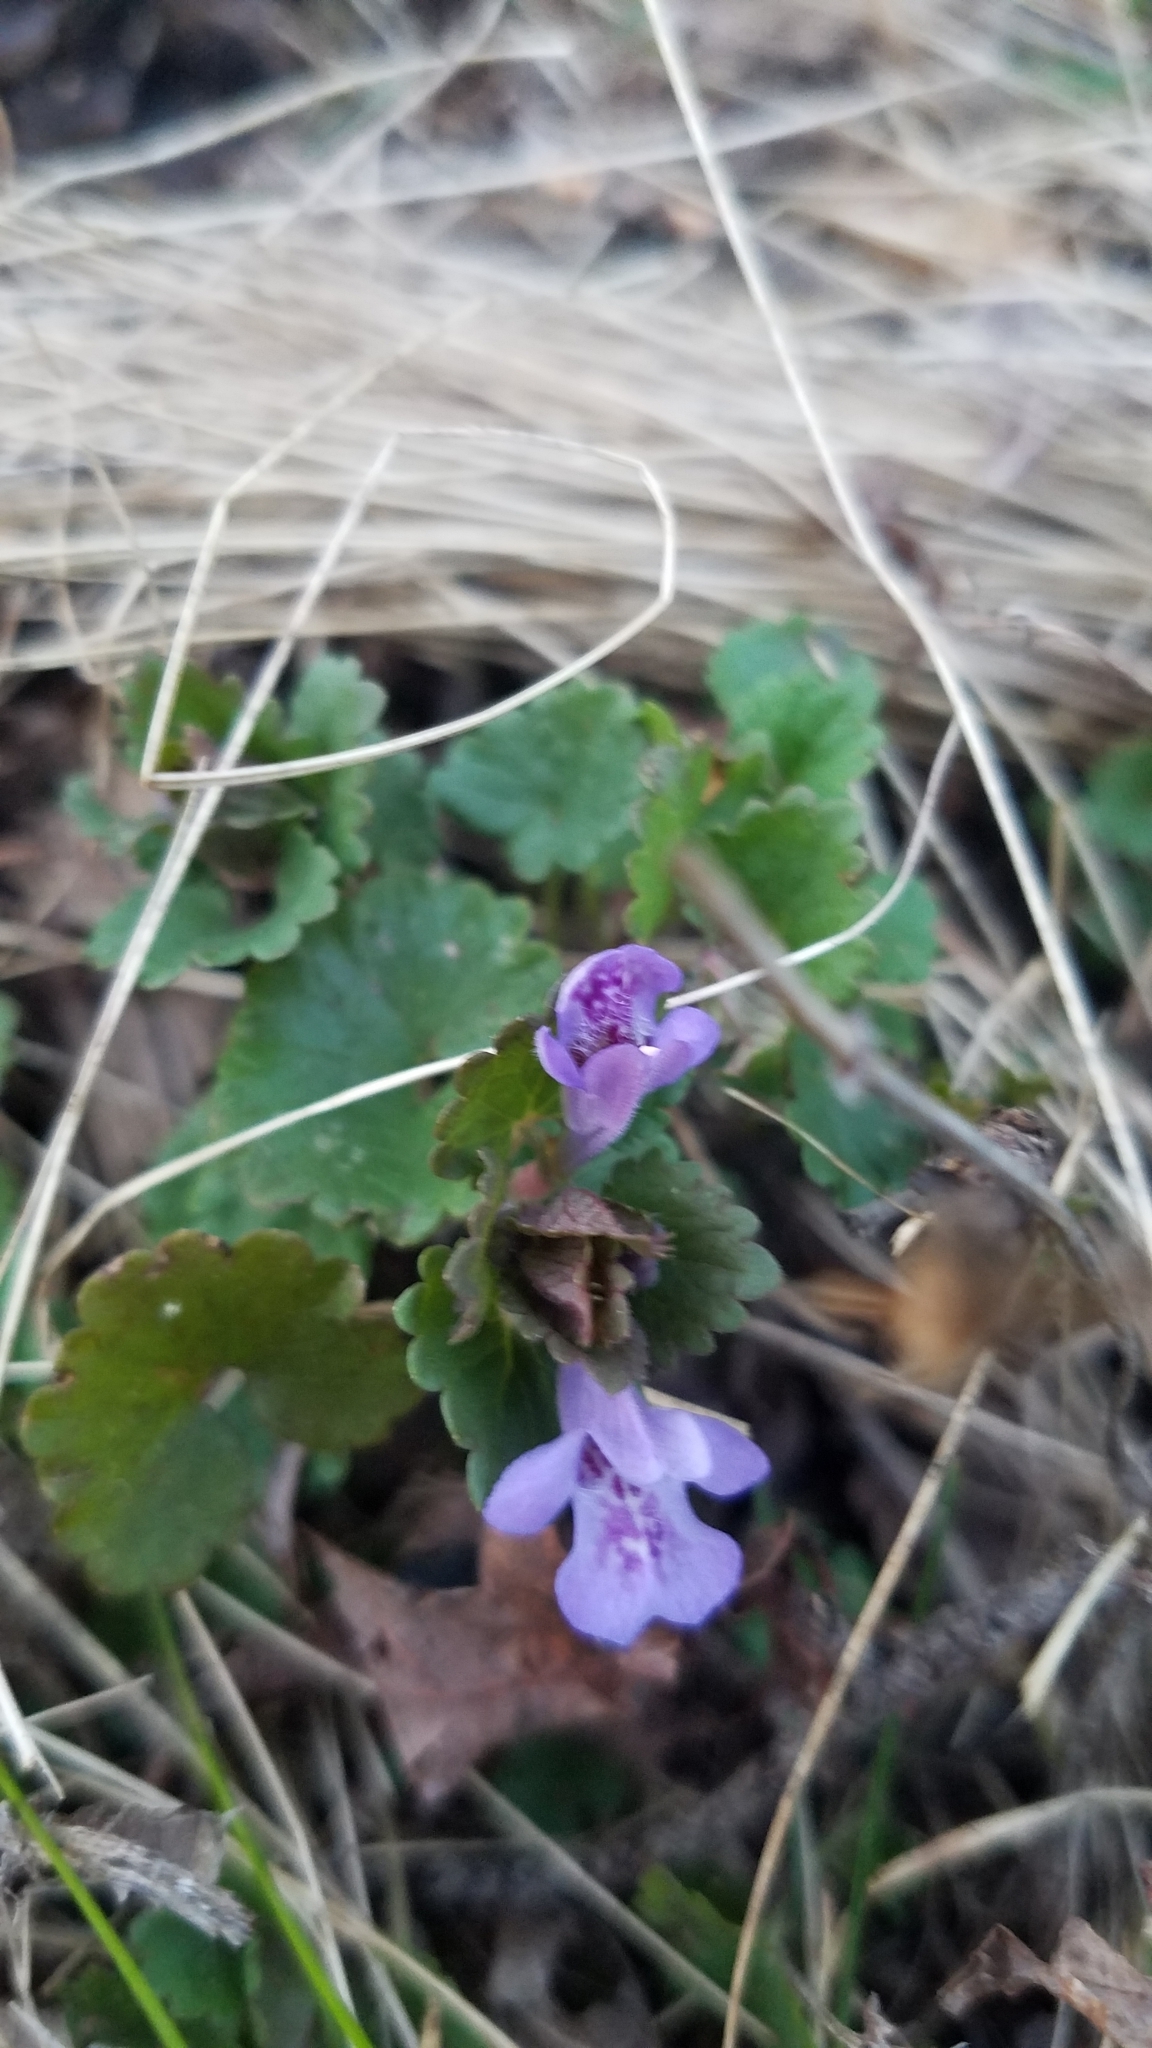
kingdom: Plantae
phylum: Tracheophyta
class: Magnoliopsida
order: Lamiales
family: Lamiaceae
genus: Glechoma
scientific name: Glechoma hederacea
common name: Ground ivy
